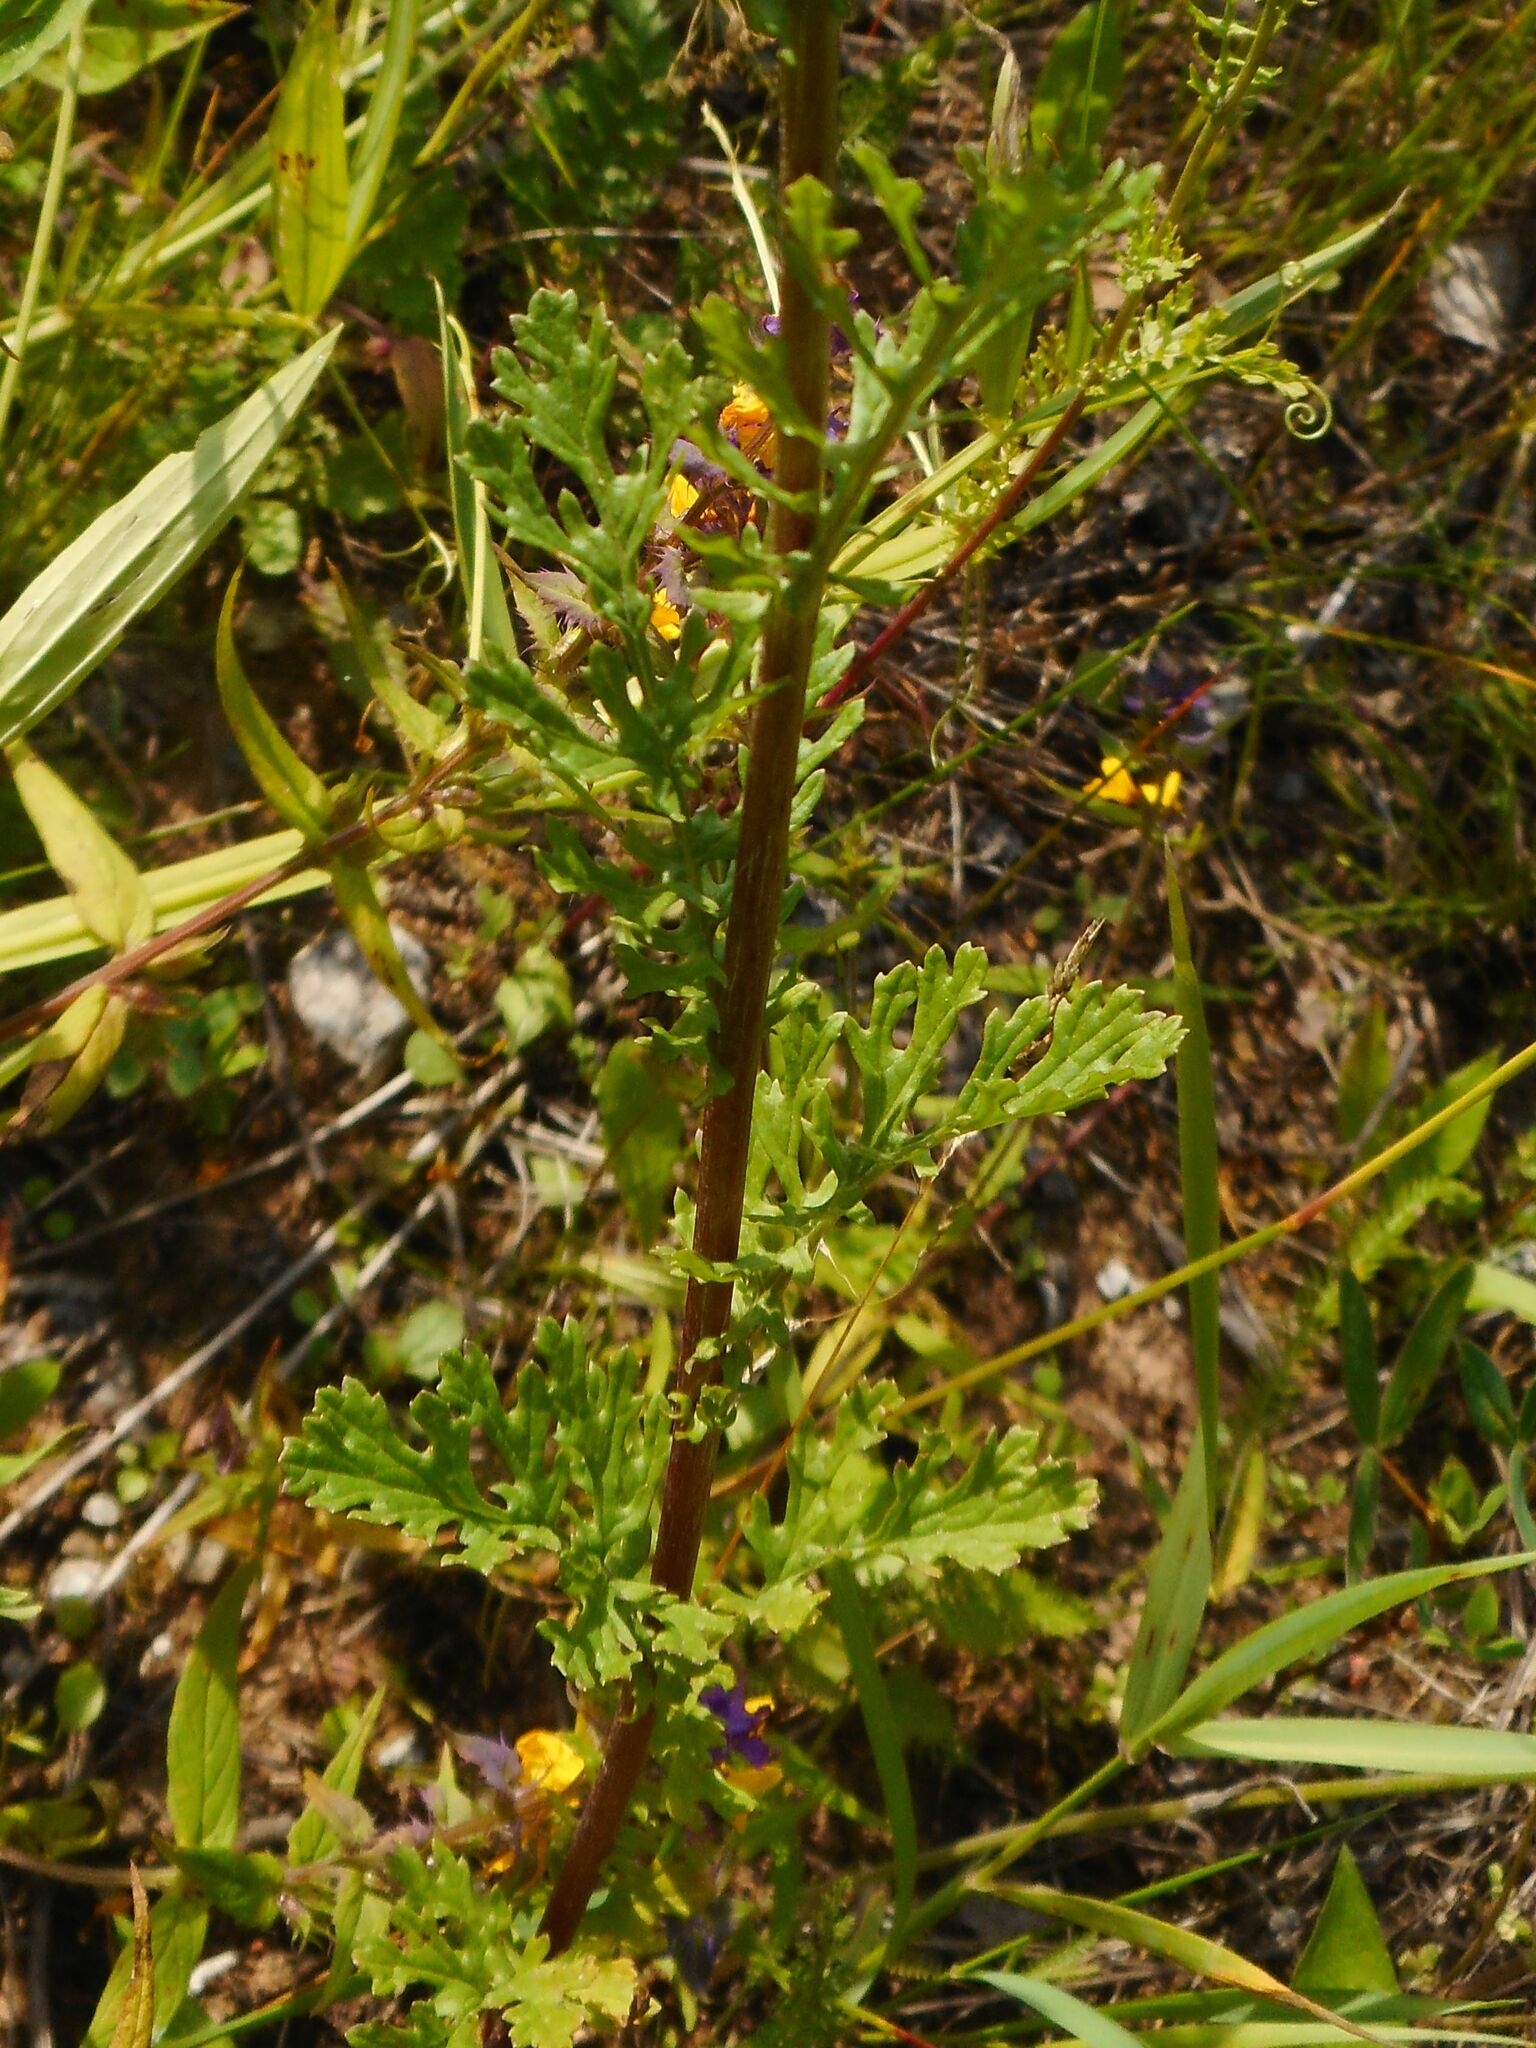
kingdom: Plantae
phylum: Tracheophyta
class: Magnoliopsida
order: Asterales
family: Asteraceae
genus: Jacobaea
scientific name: Jacobaea vulgaris
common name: Stinking willie
